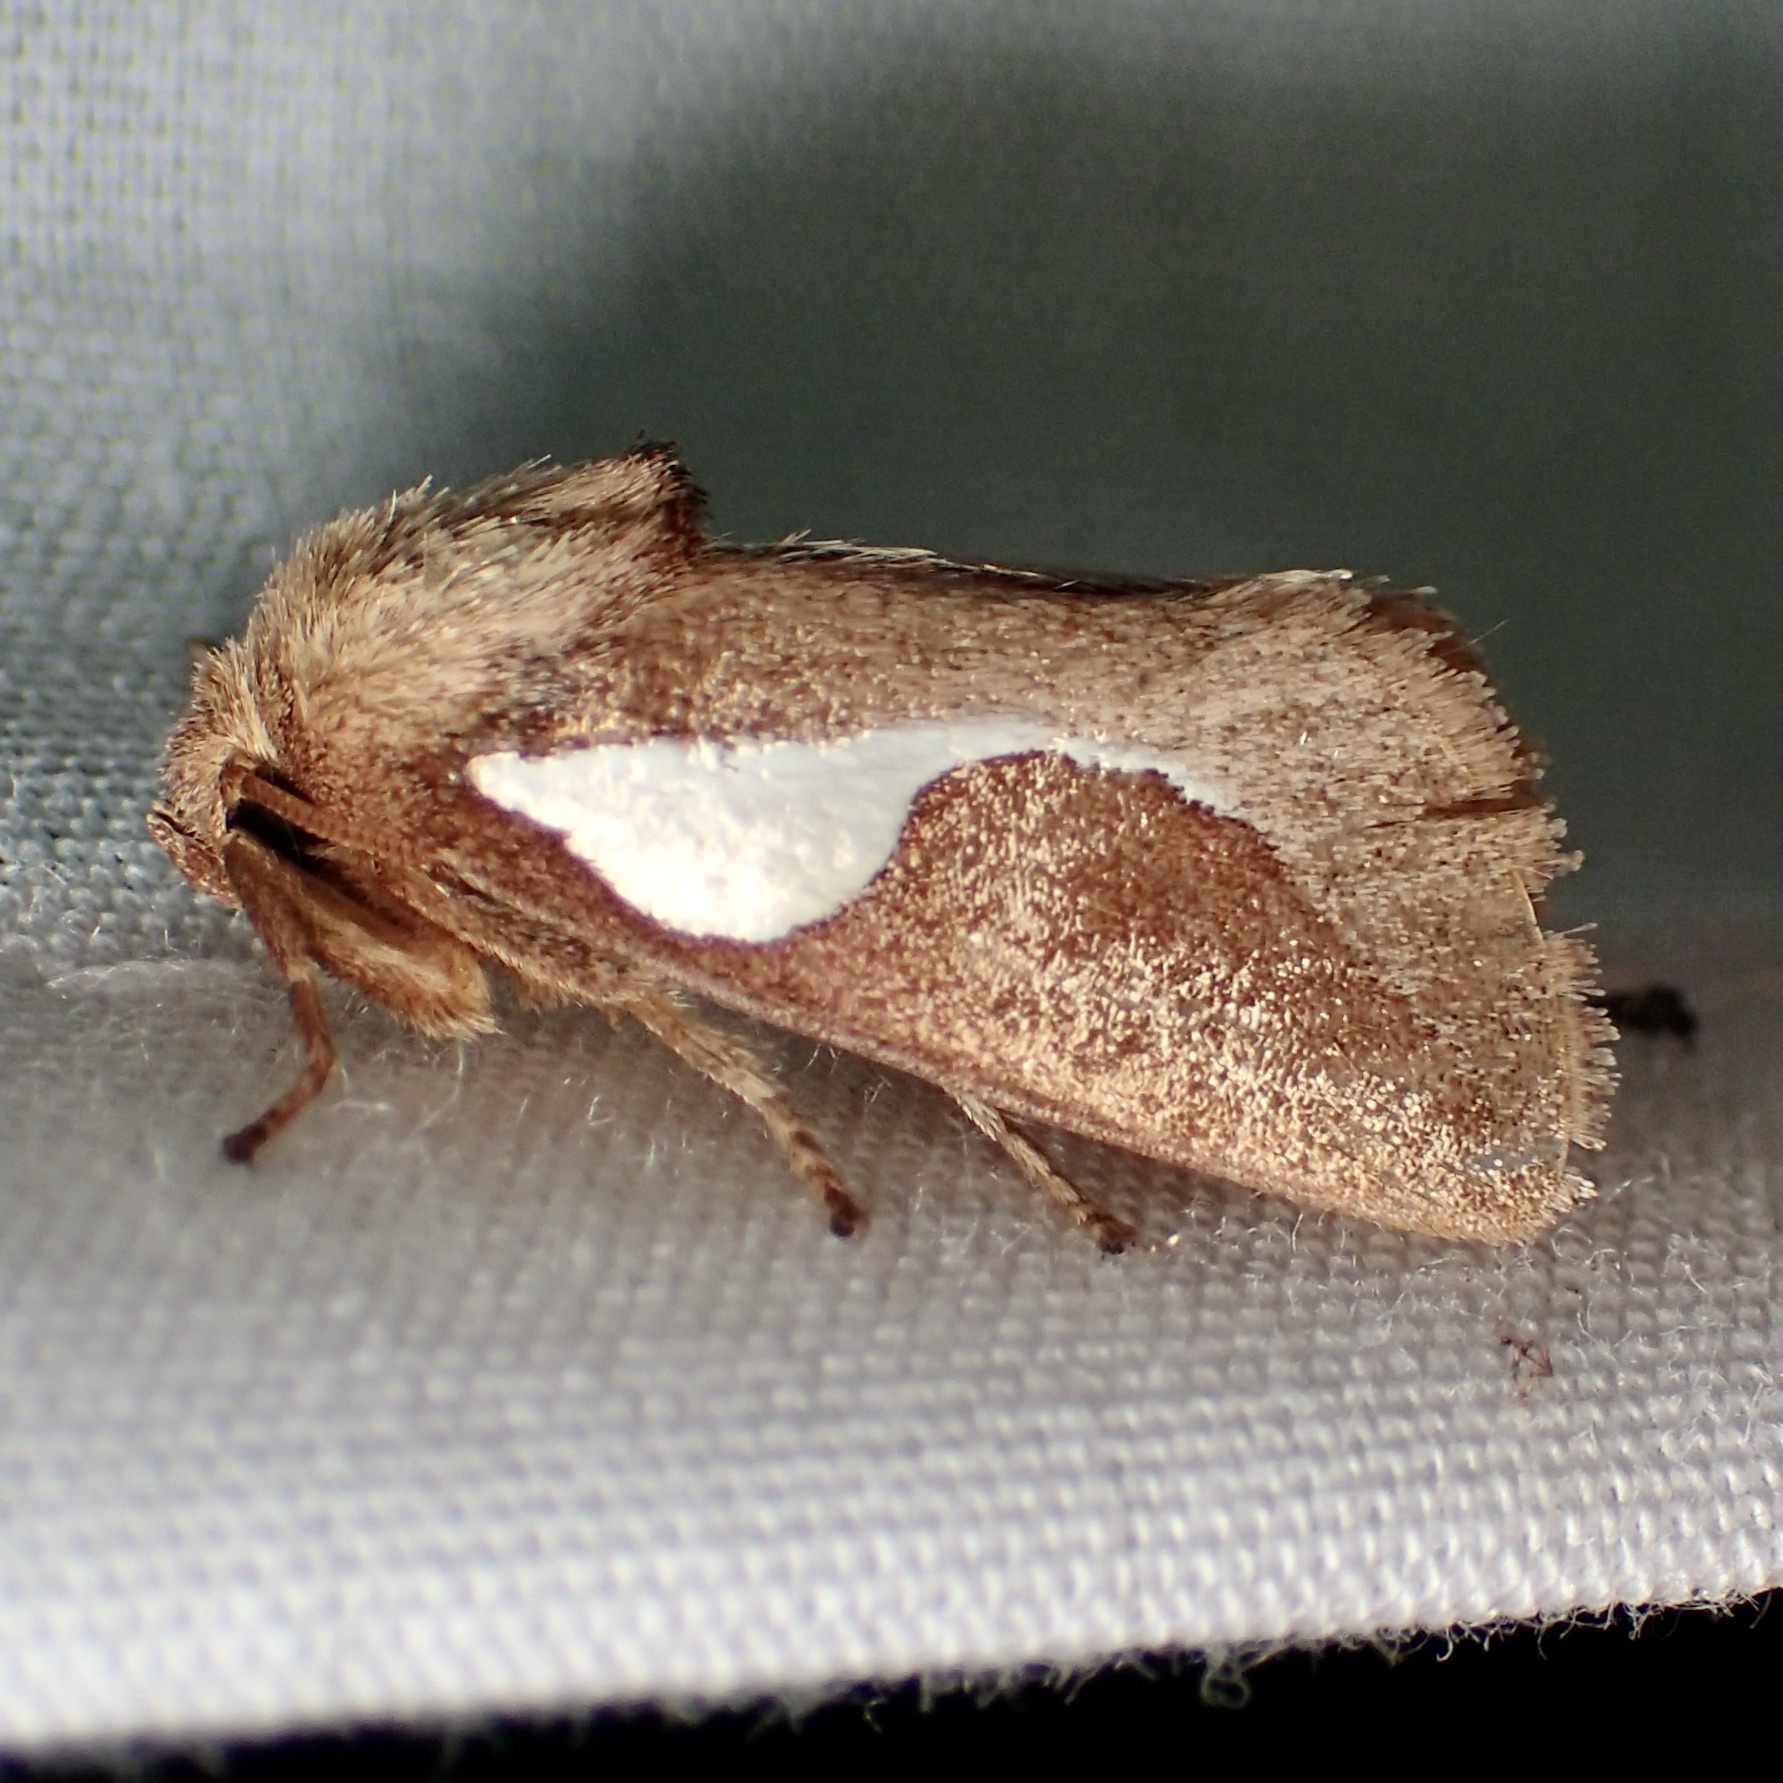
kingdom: Animalia
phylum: Arthropoda
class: Insecta
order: Lepidoptera
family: Limacodidae
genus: Prolimacodes
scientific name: Prolimacodes trigona
